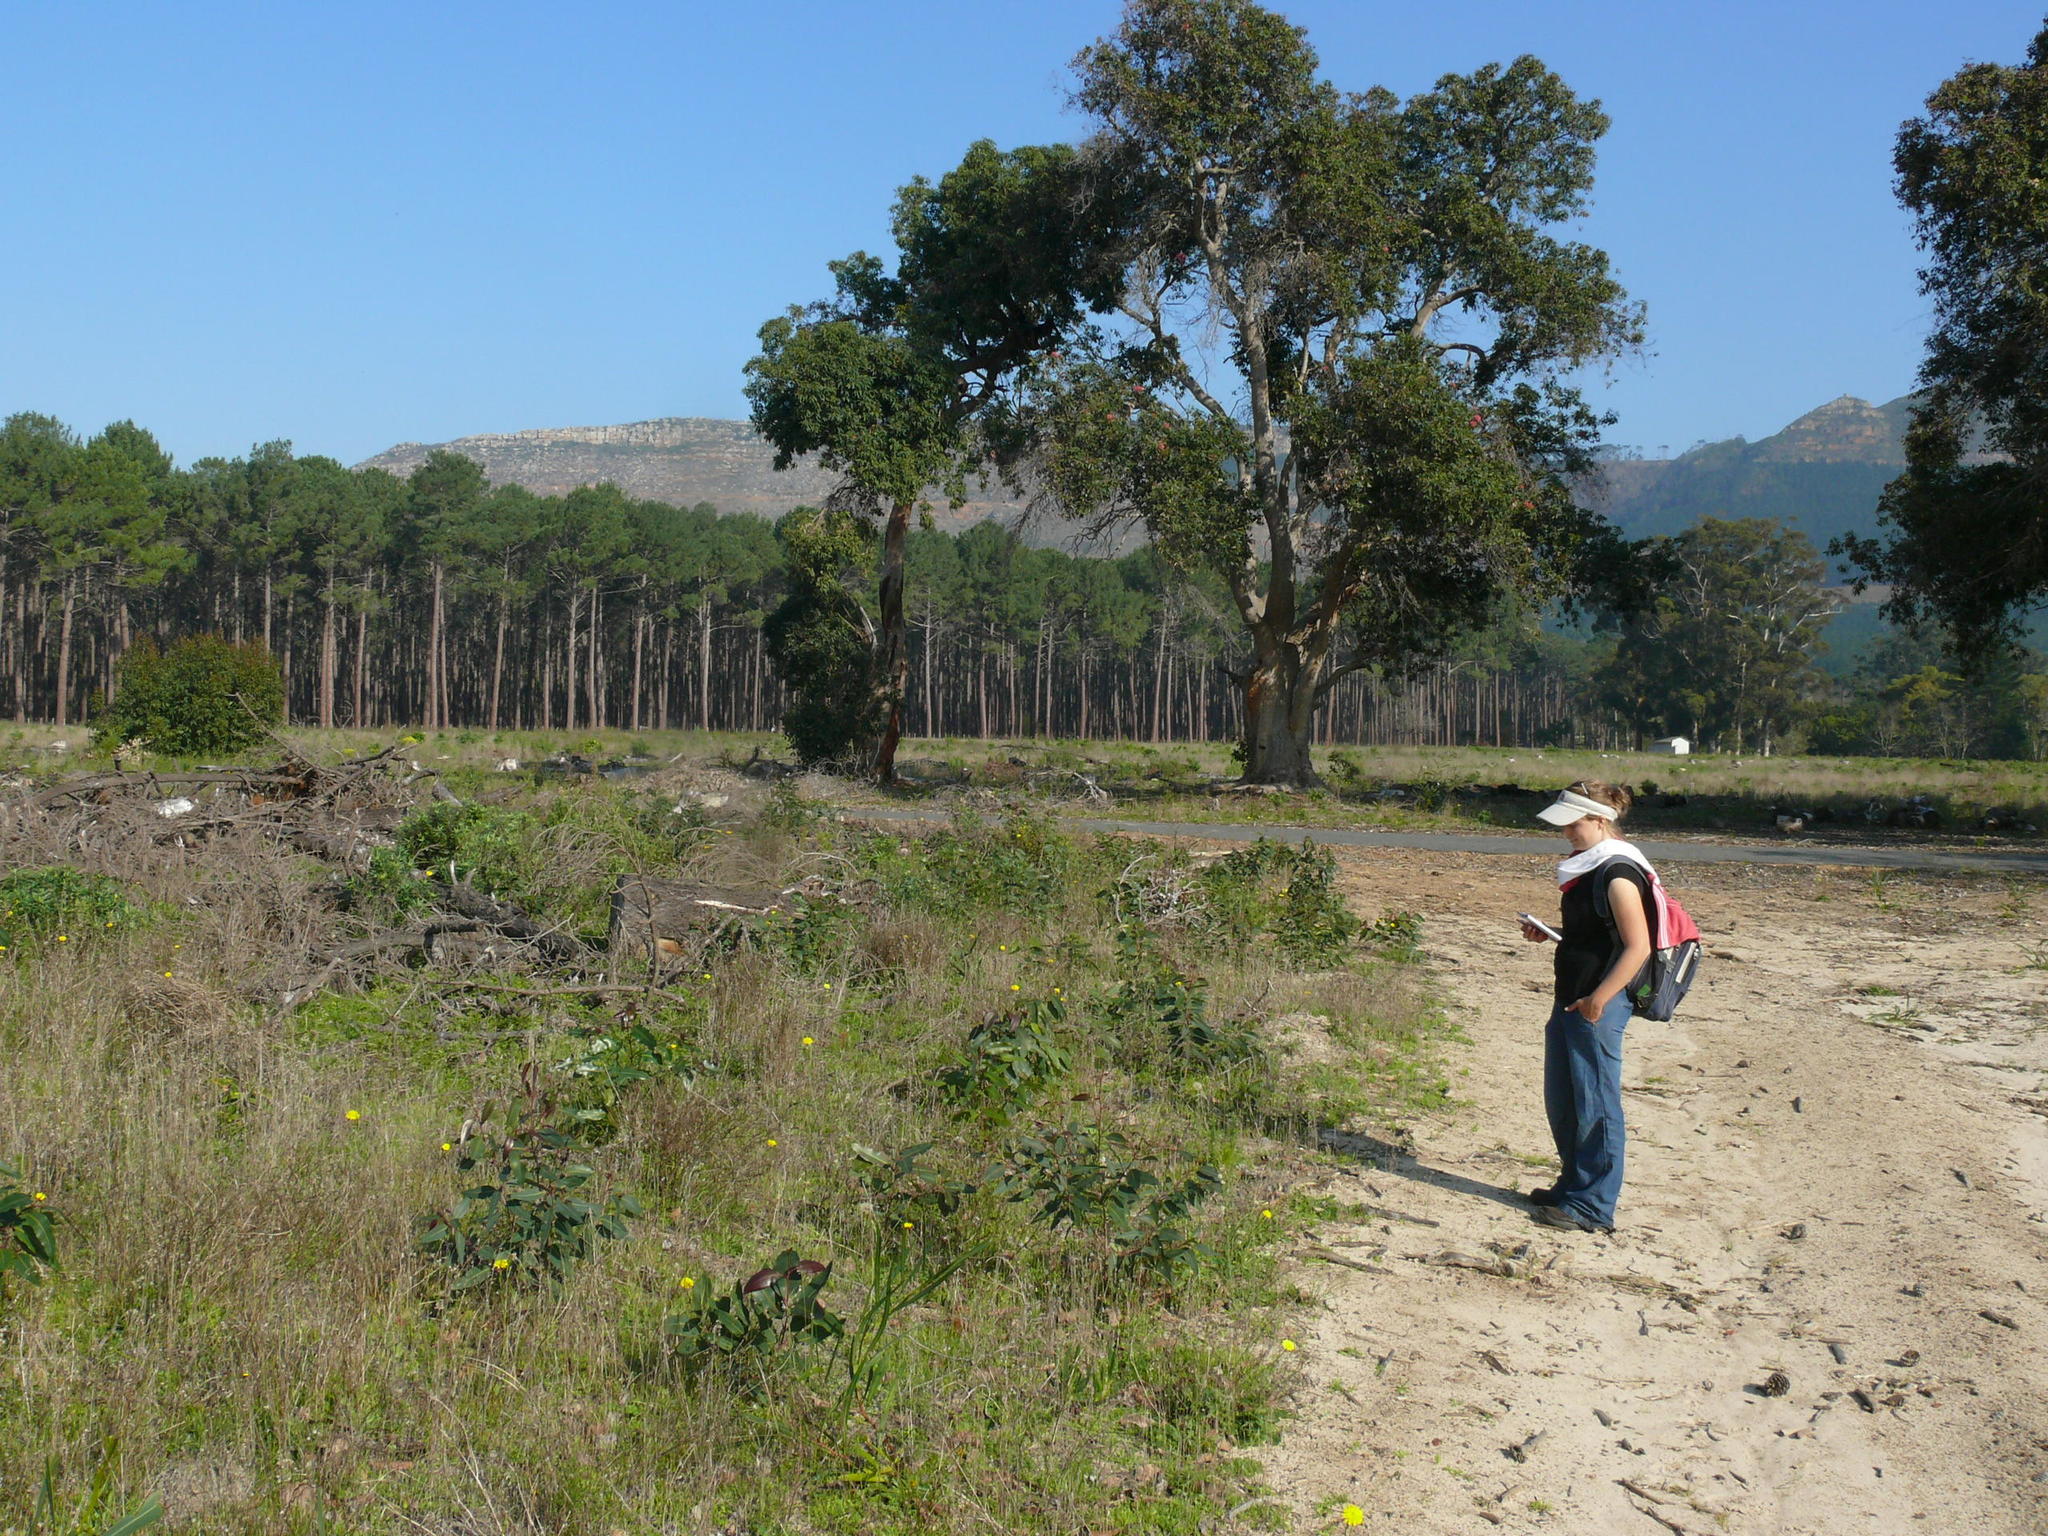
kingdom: Plantae
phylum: Tracheophyta
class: Magnoliopsida
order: Myrtales
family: Myrtaceae
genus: Corymbia
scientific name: Corymbia ficifolia
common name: Redflower gum
